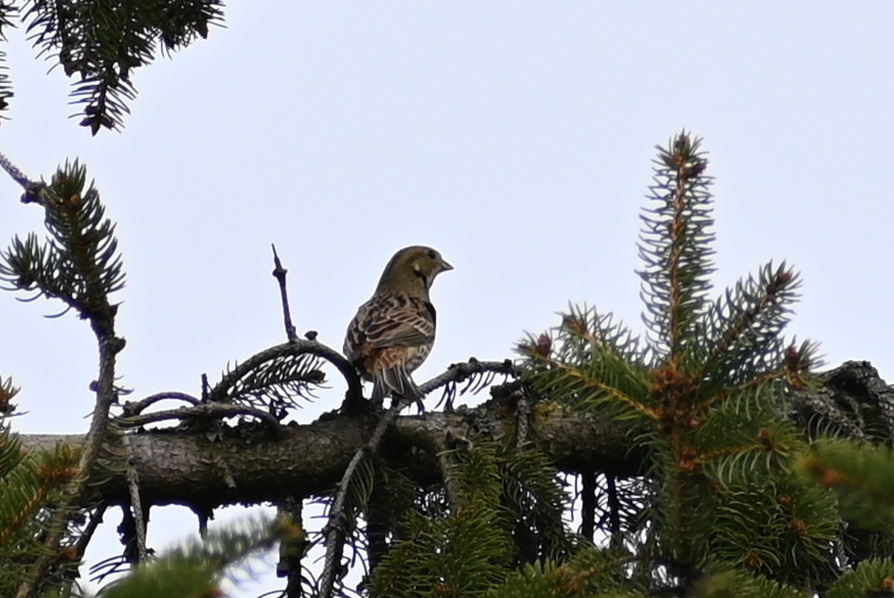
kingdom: Animalia
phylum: Chordata
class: Aves
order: Passeriformes
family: Emberizidae
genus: Emberiza
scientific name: Emberiza citrinella
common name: Yellowhammer
